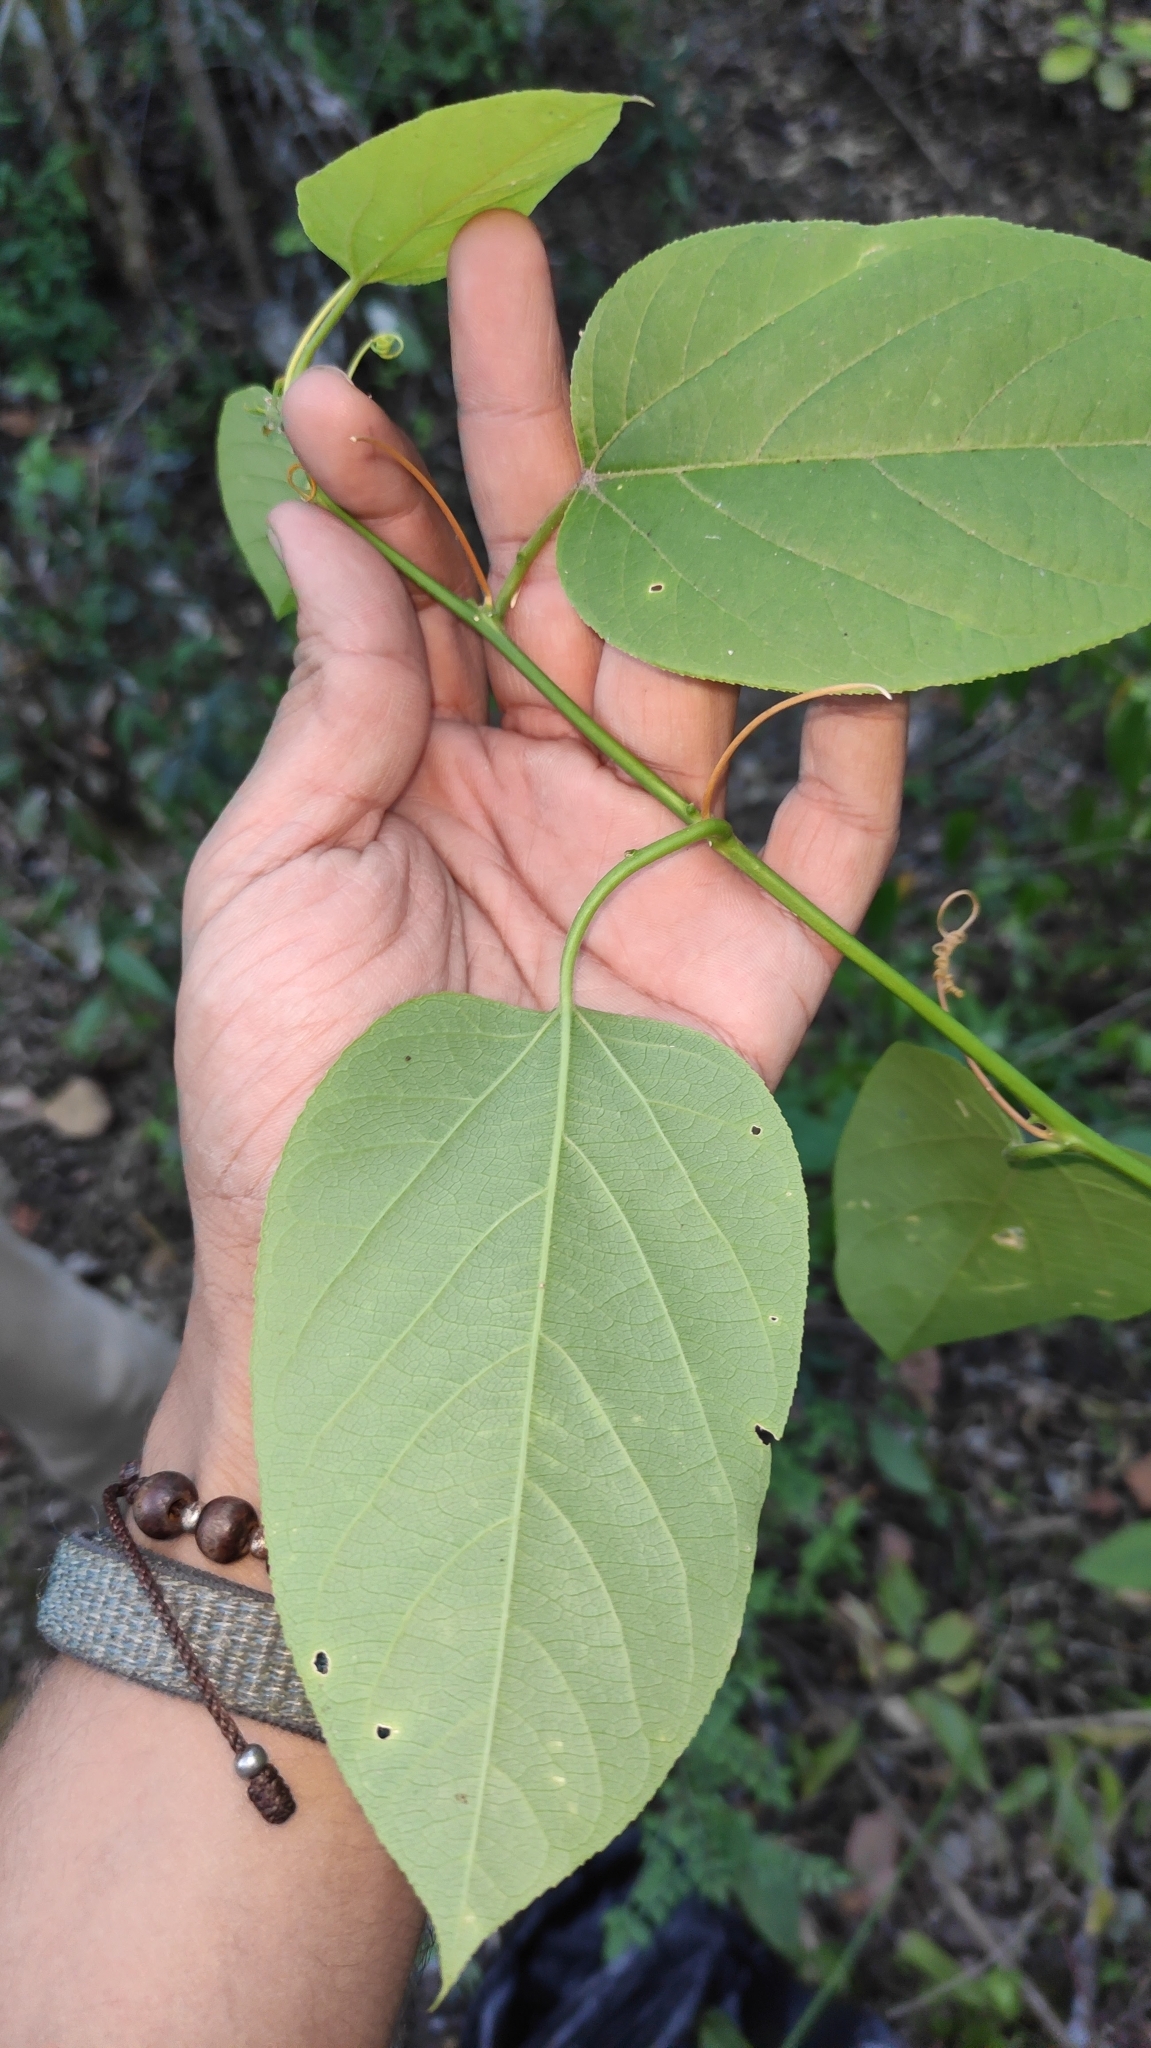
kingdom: Plantae
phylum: Tracheophyta
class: Magnoliopsida
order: Malpighiales
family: Passifloraceae
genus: Passiflora
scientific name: Passiflora maliformis
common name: Conch apple
